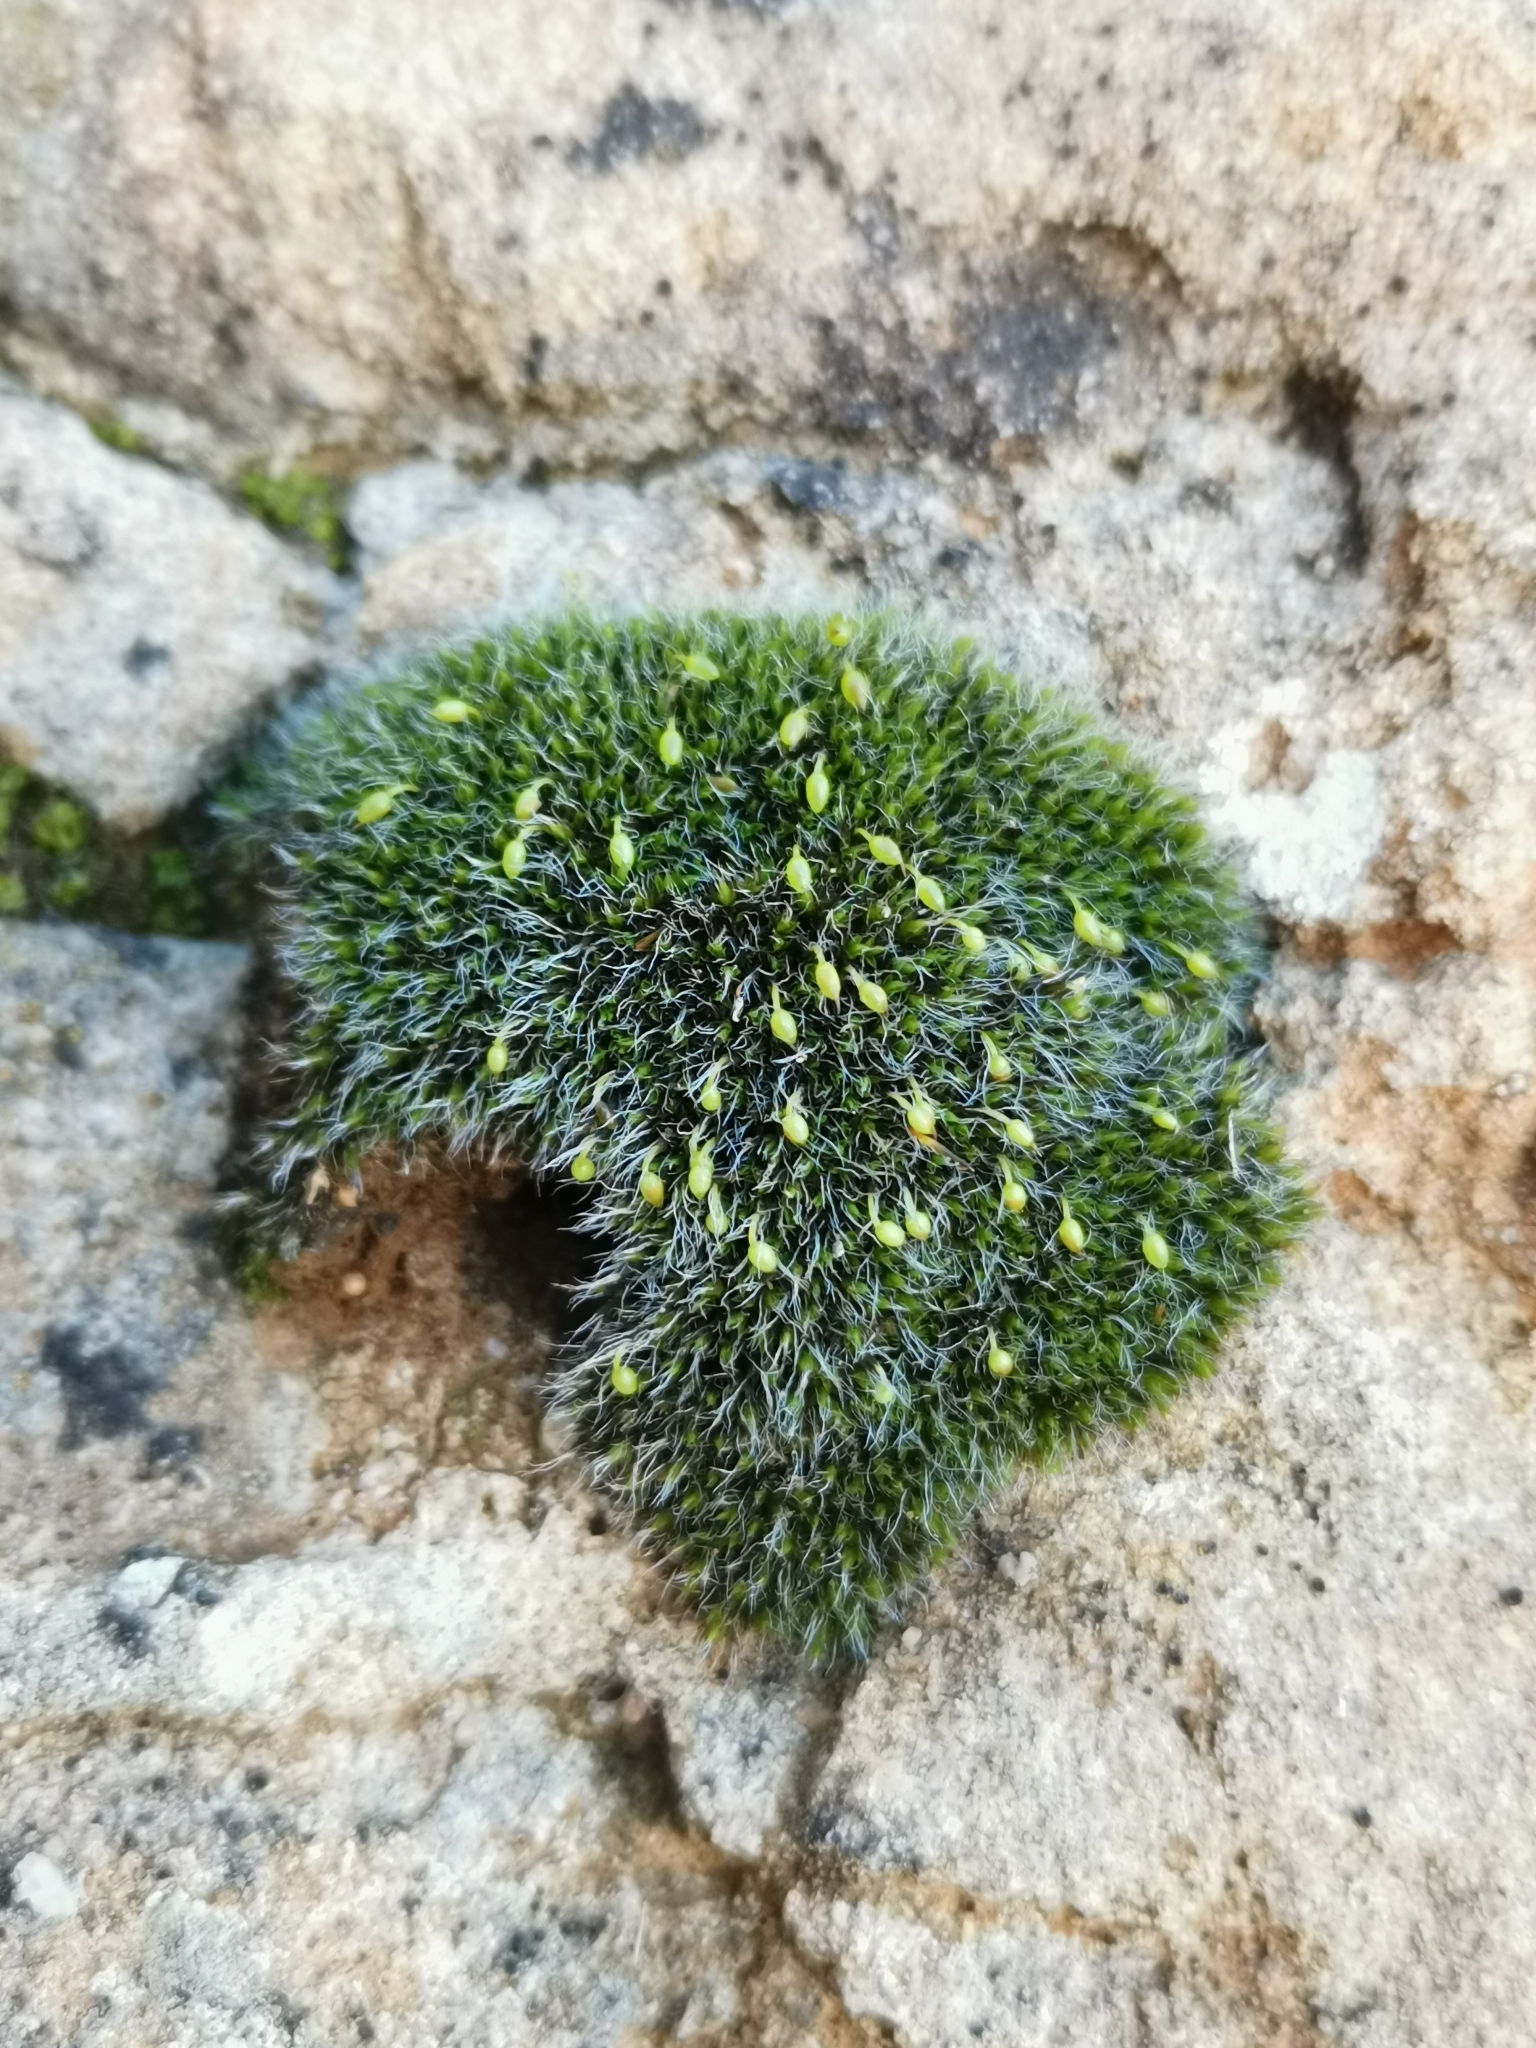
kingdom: Plantae
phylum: Bryophyta
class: Bryopsida
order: Grimmiales
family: Grimmiaceae
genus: Grimmia
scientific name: Grimmia orbicularis
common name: Round-fruited grimmia
